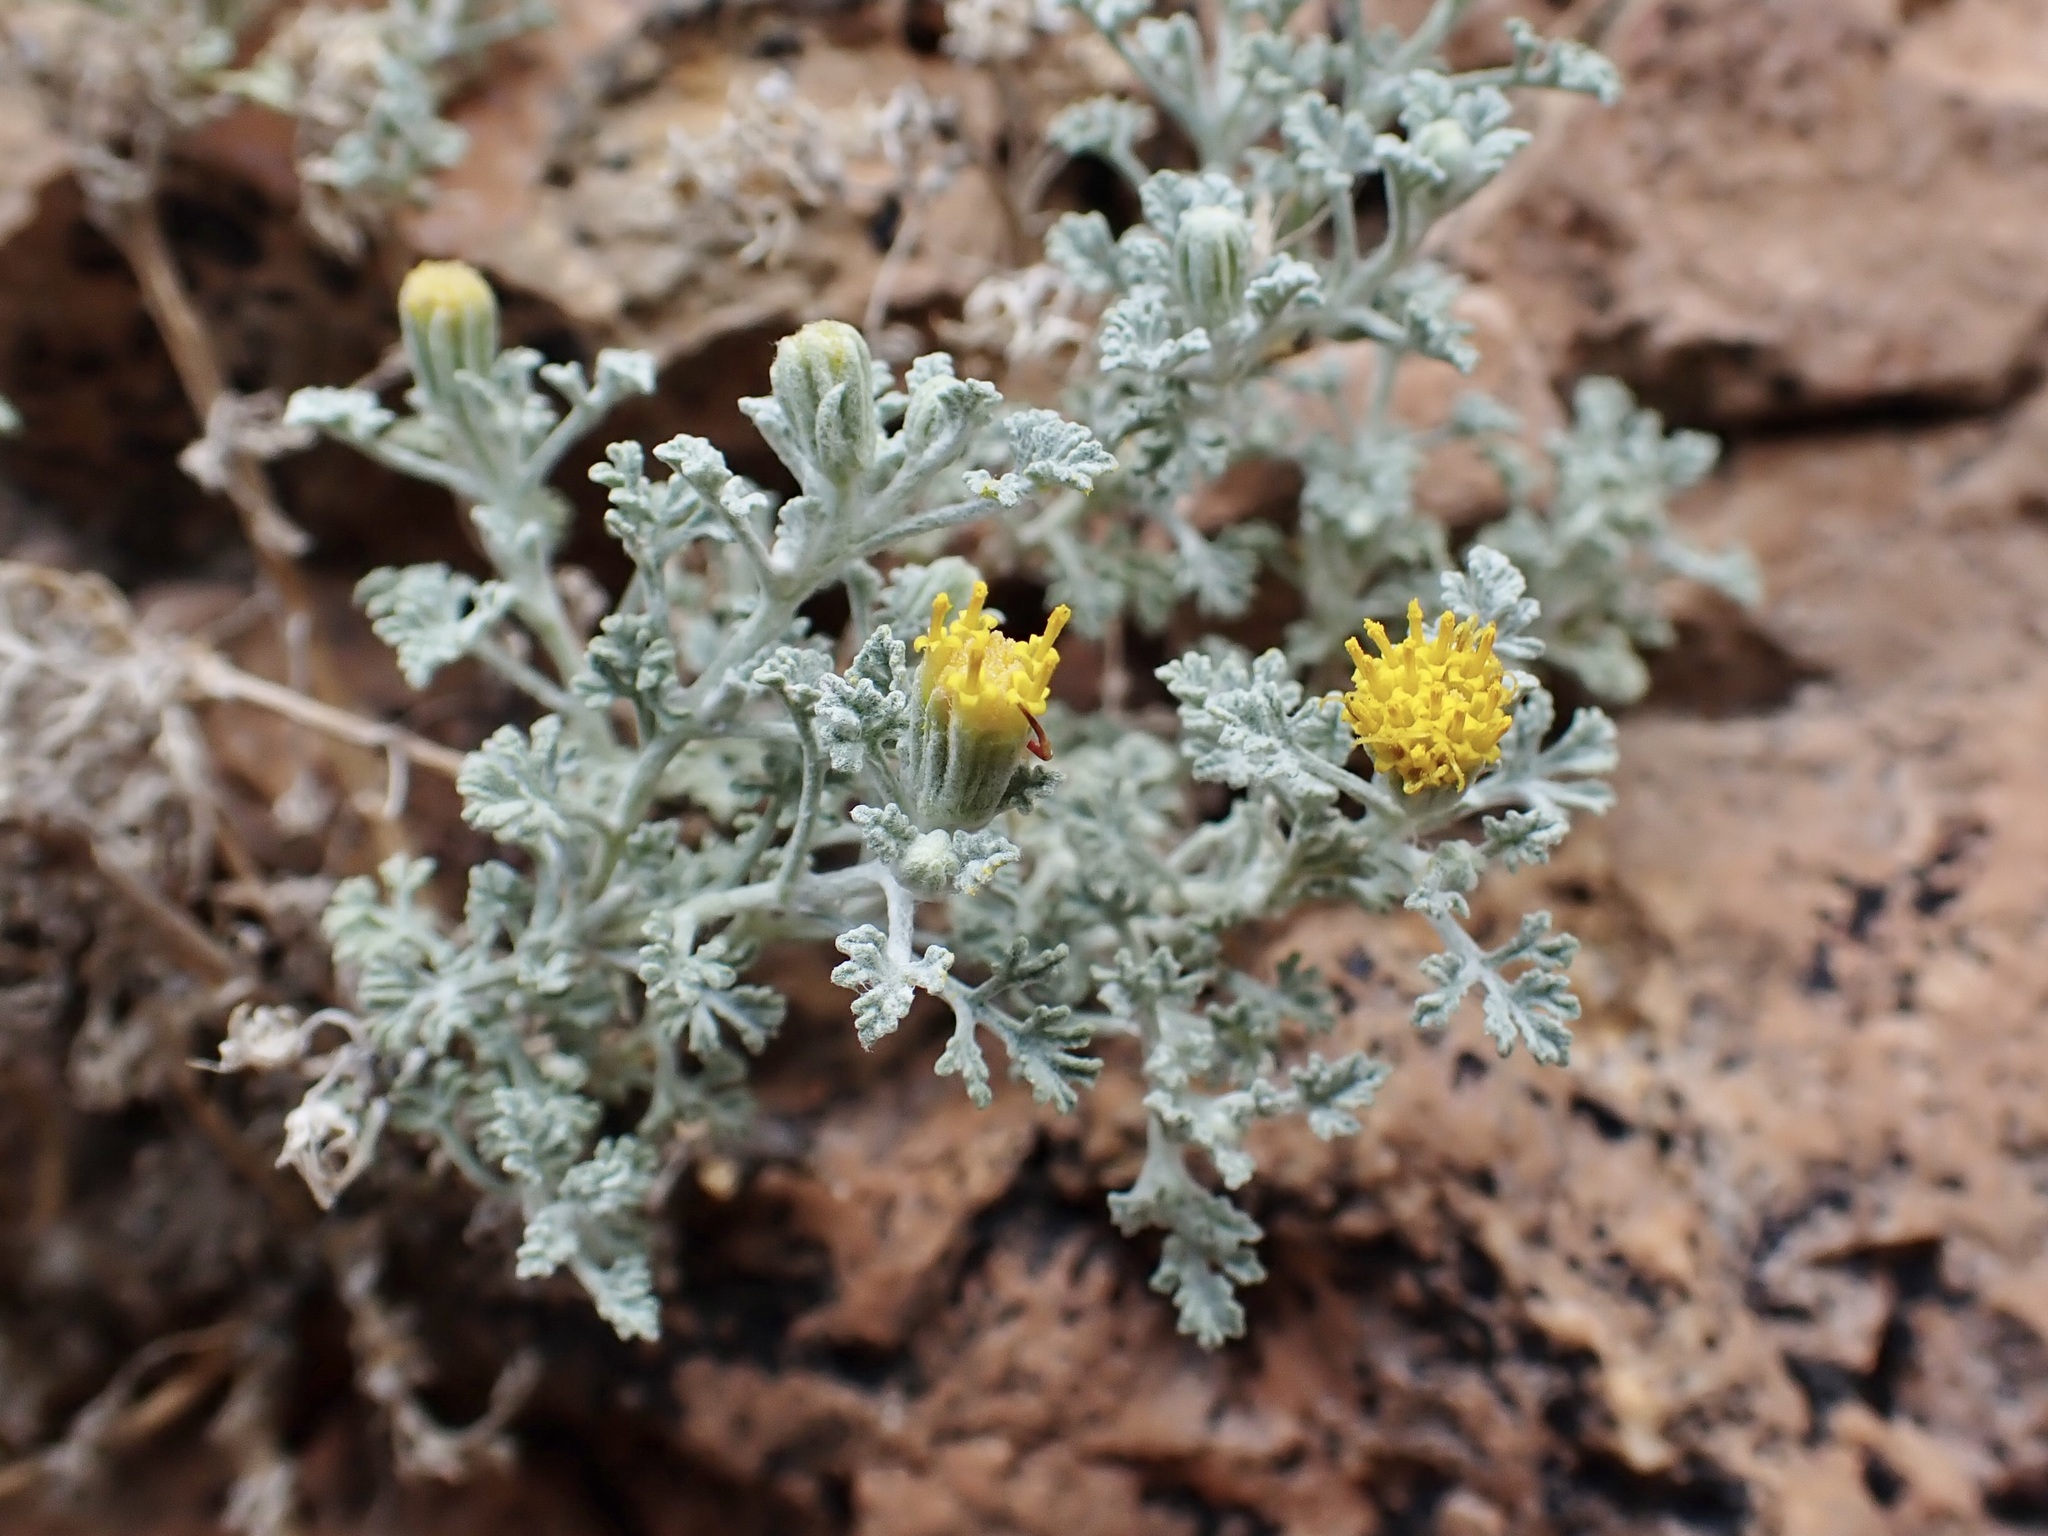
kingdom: Plantae
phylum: Tracheophyta
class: Magnoliopsida
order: Asterales
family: Asteraceae
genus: Laphamia
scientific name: Laphamia vandevenderi
